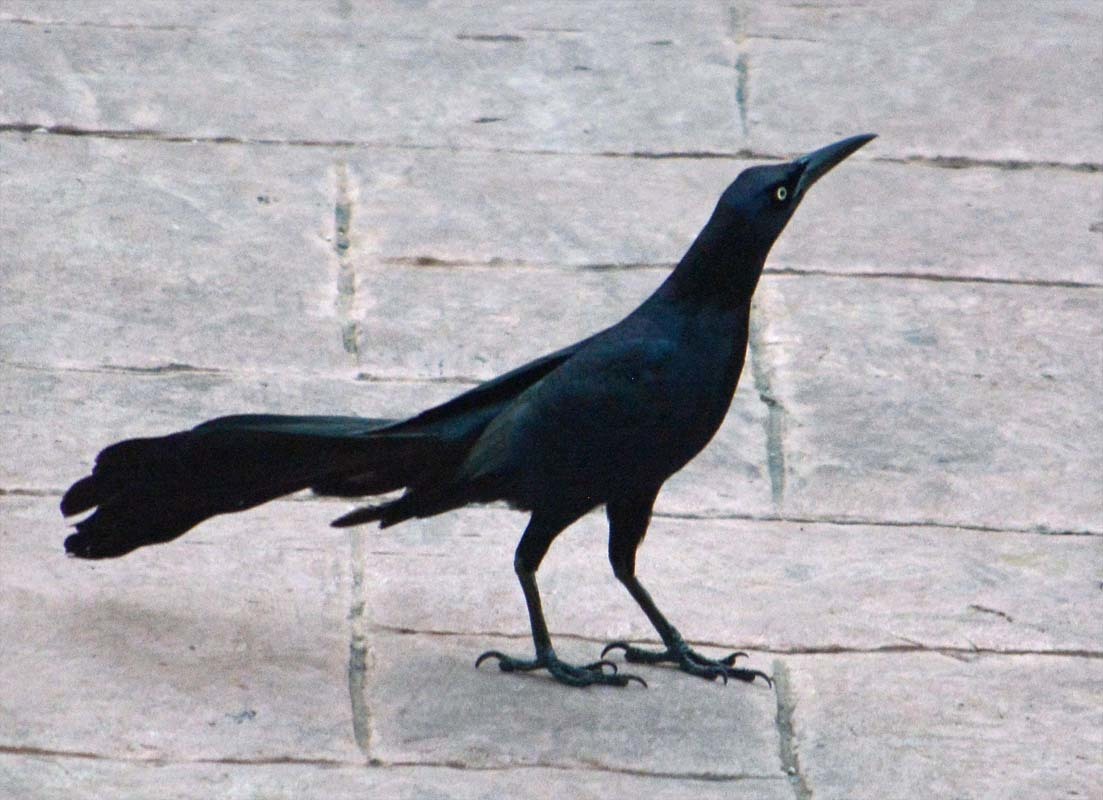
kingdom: Animalia
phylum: Chordata
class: Aves
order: Passeriformes
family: Icteridae
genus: Quiscalus
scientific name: Quiscalus mexicanus
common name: Great-tailed grackle
